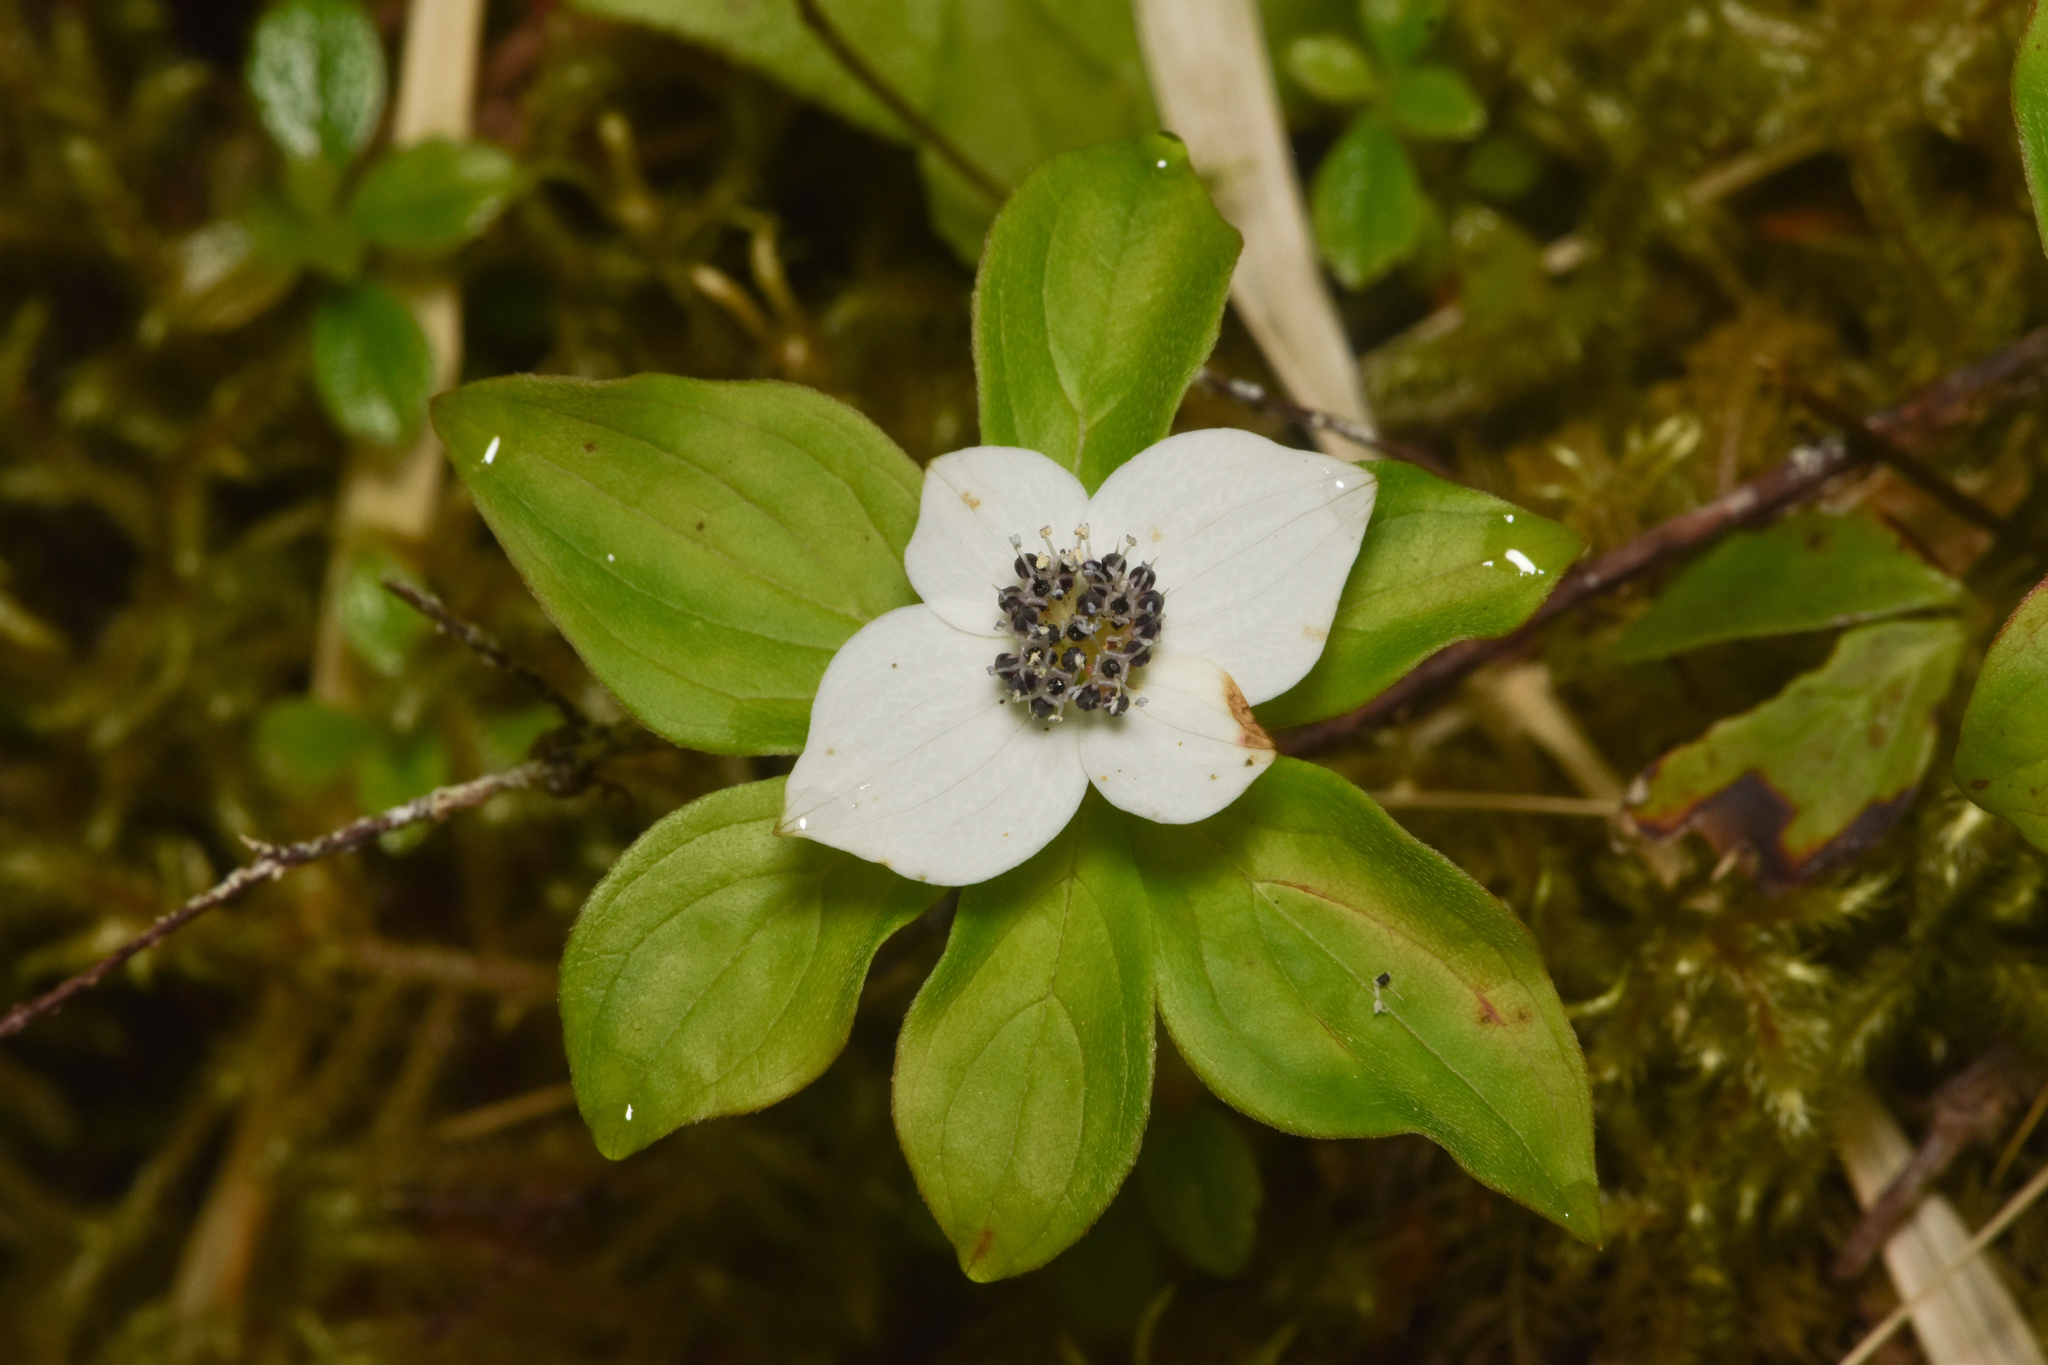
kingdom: Plantae
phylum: Tracheophyta
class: Magnoliopsida
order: Cornales
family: Cornaceae
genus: Cornus
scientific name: Cornus unalaschkensis
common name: Alaska bunchberry
